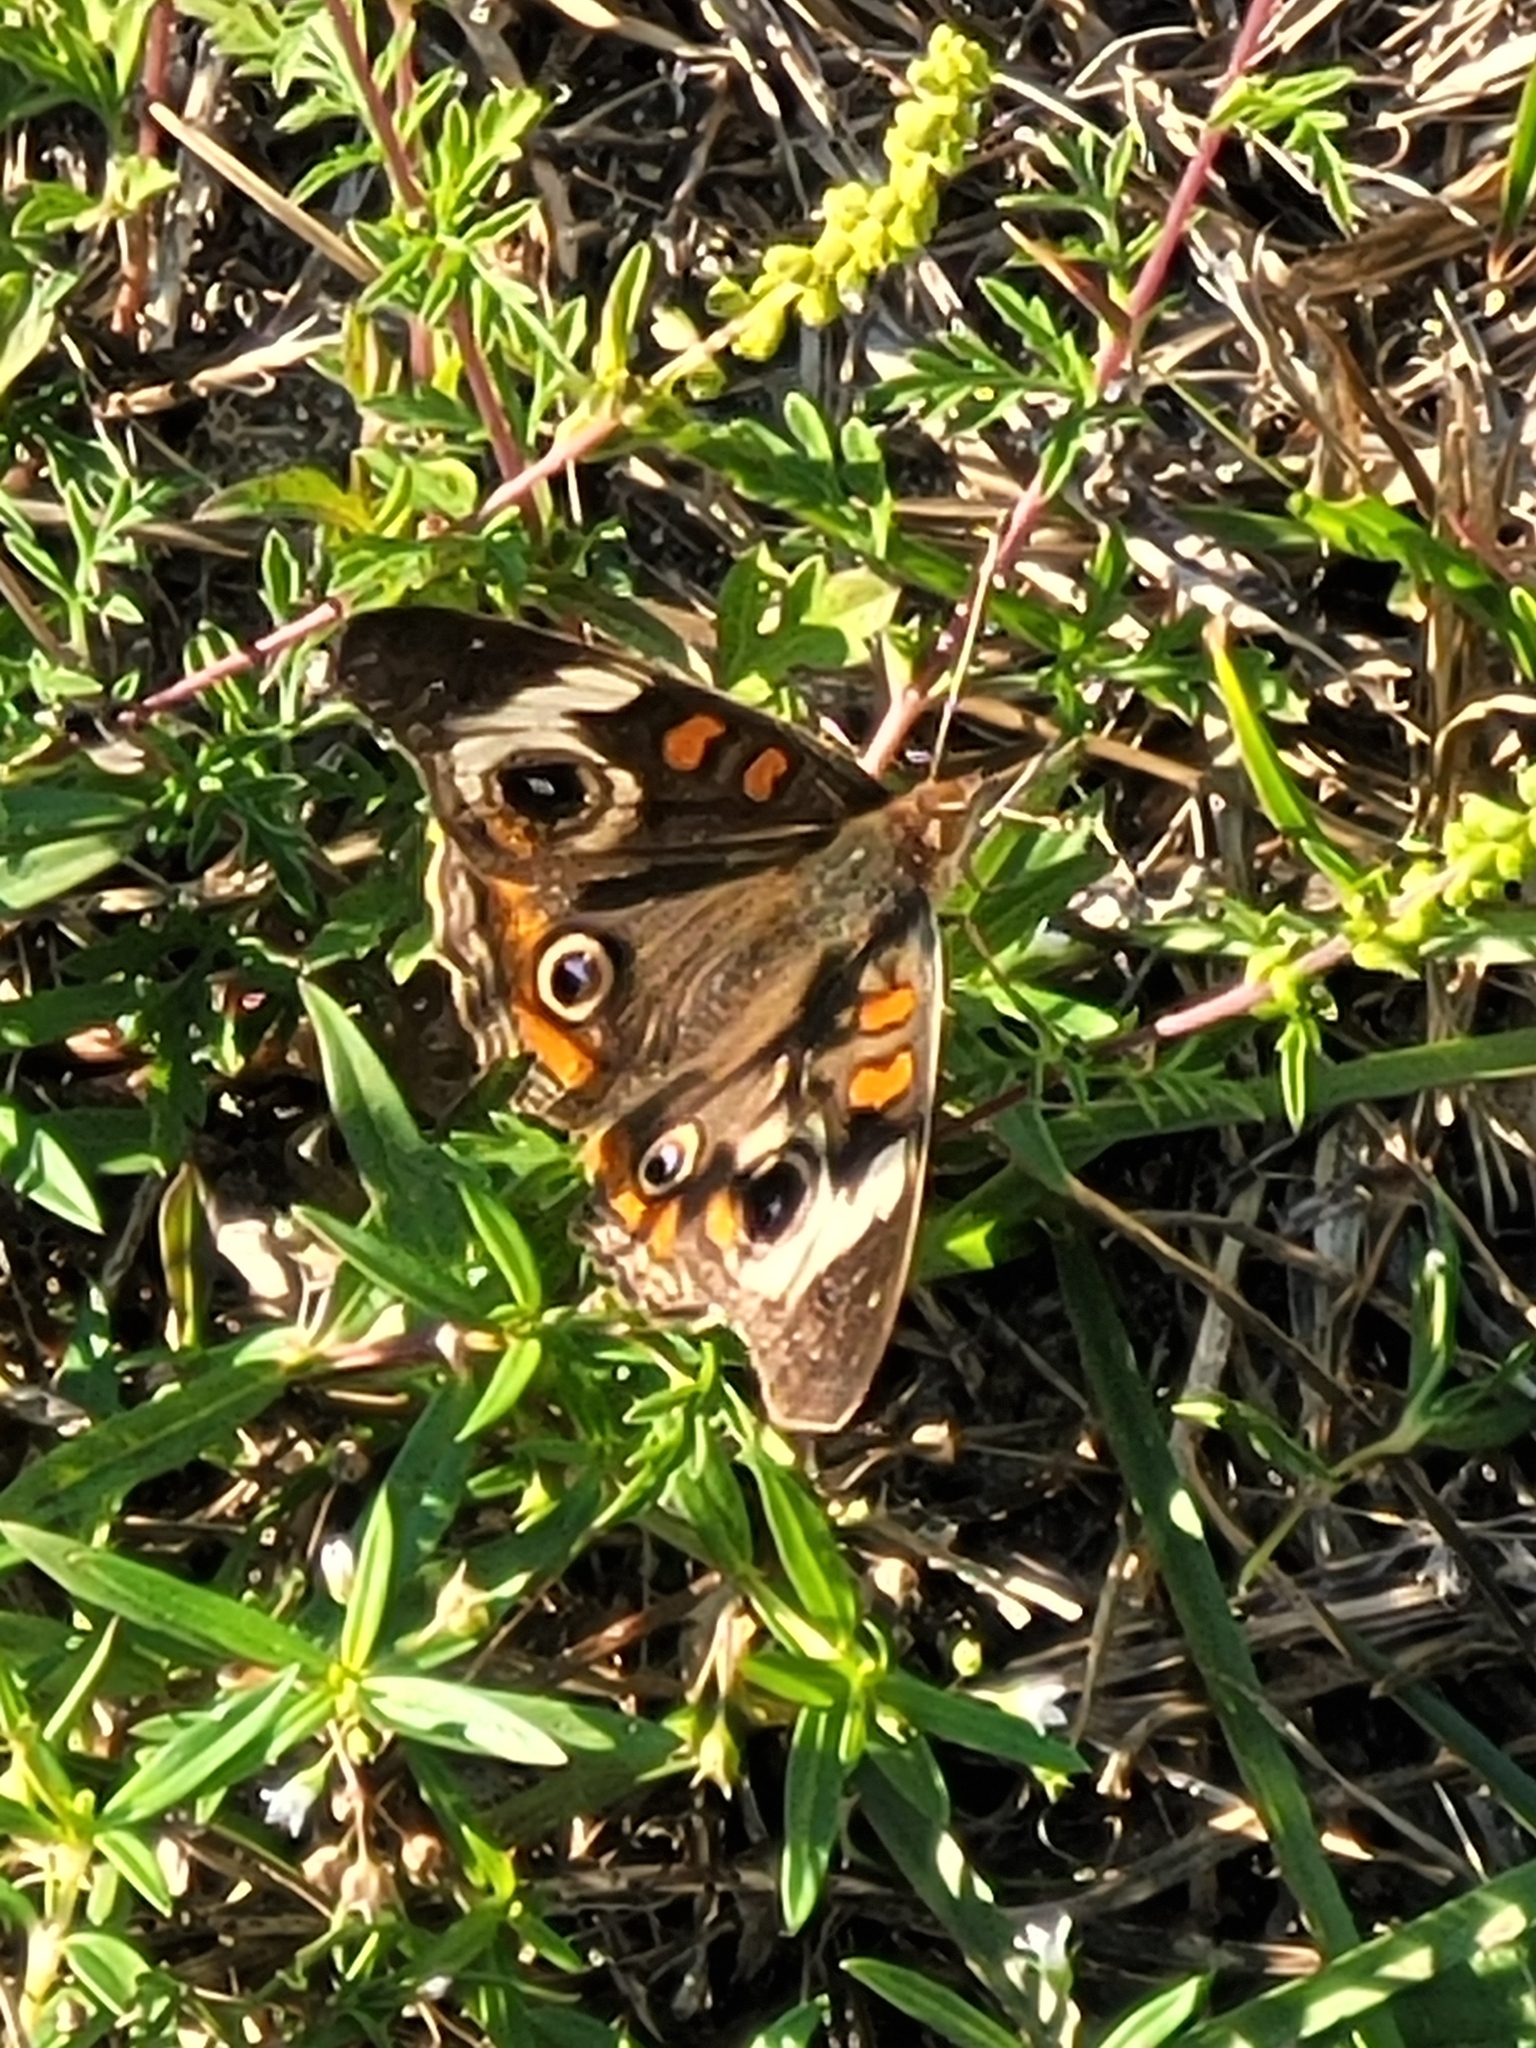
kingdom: Animalia
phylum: Arthropoda
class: Insecta
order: Lepidoptera
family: Nymphalidae
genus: Junonia
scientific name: Junonia coenia
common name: Common buckeye
